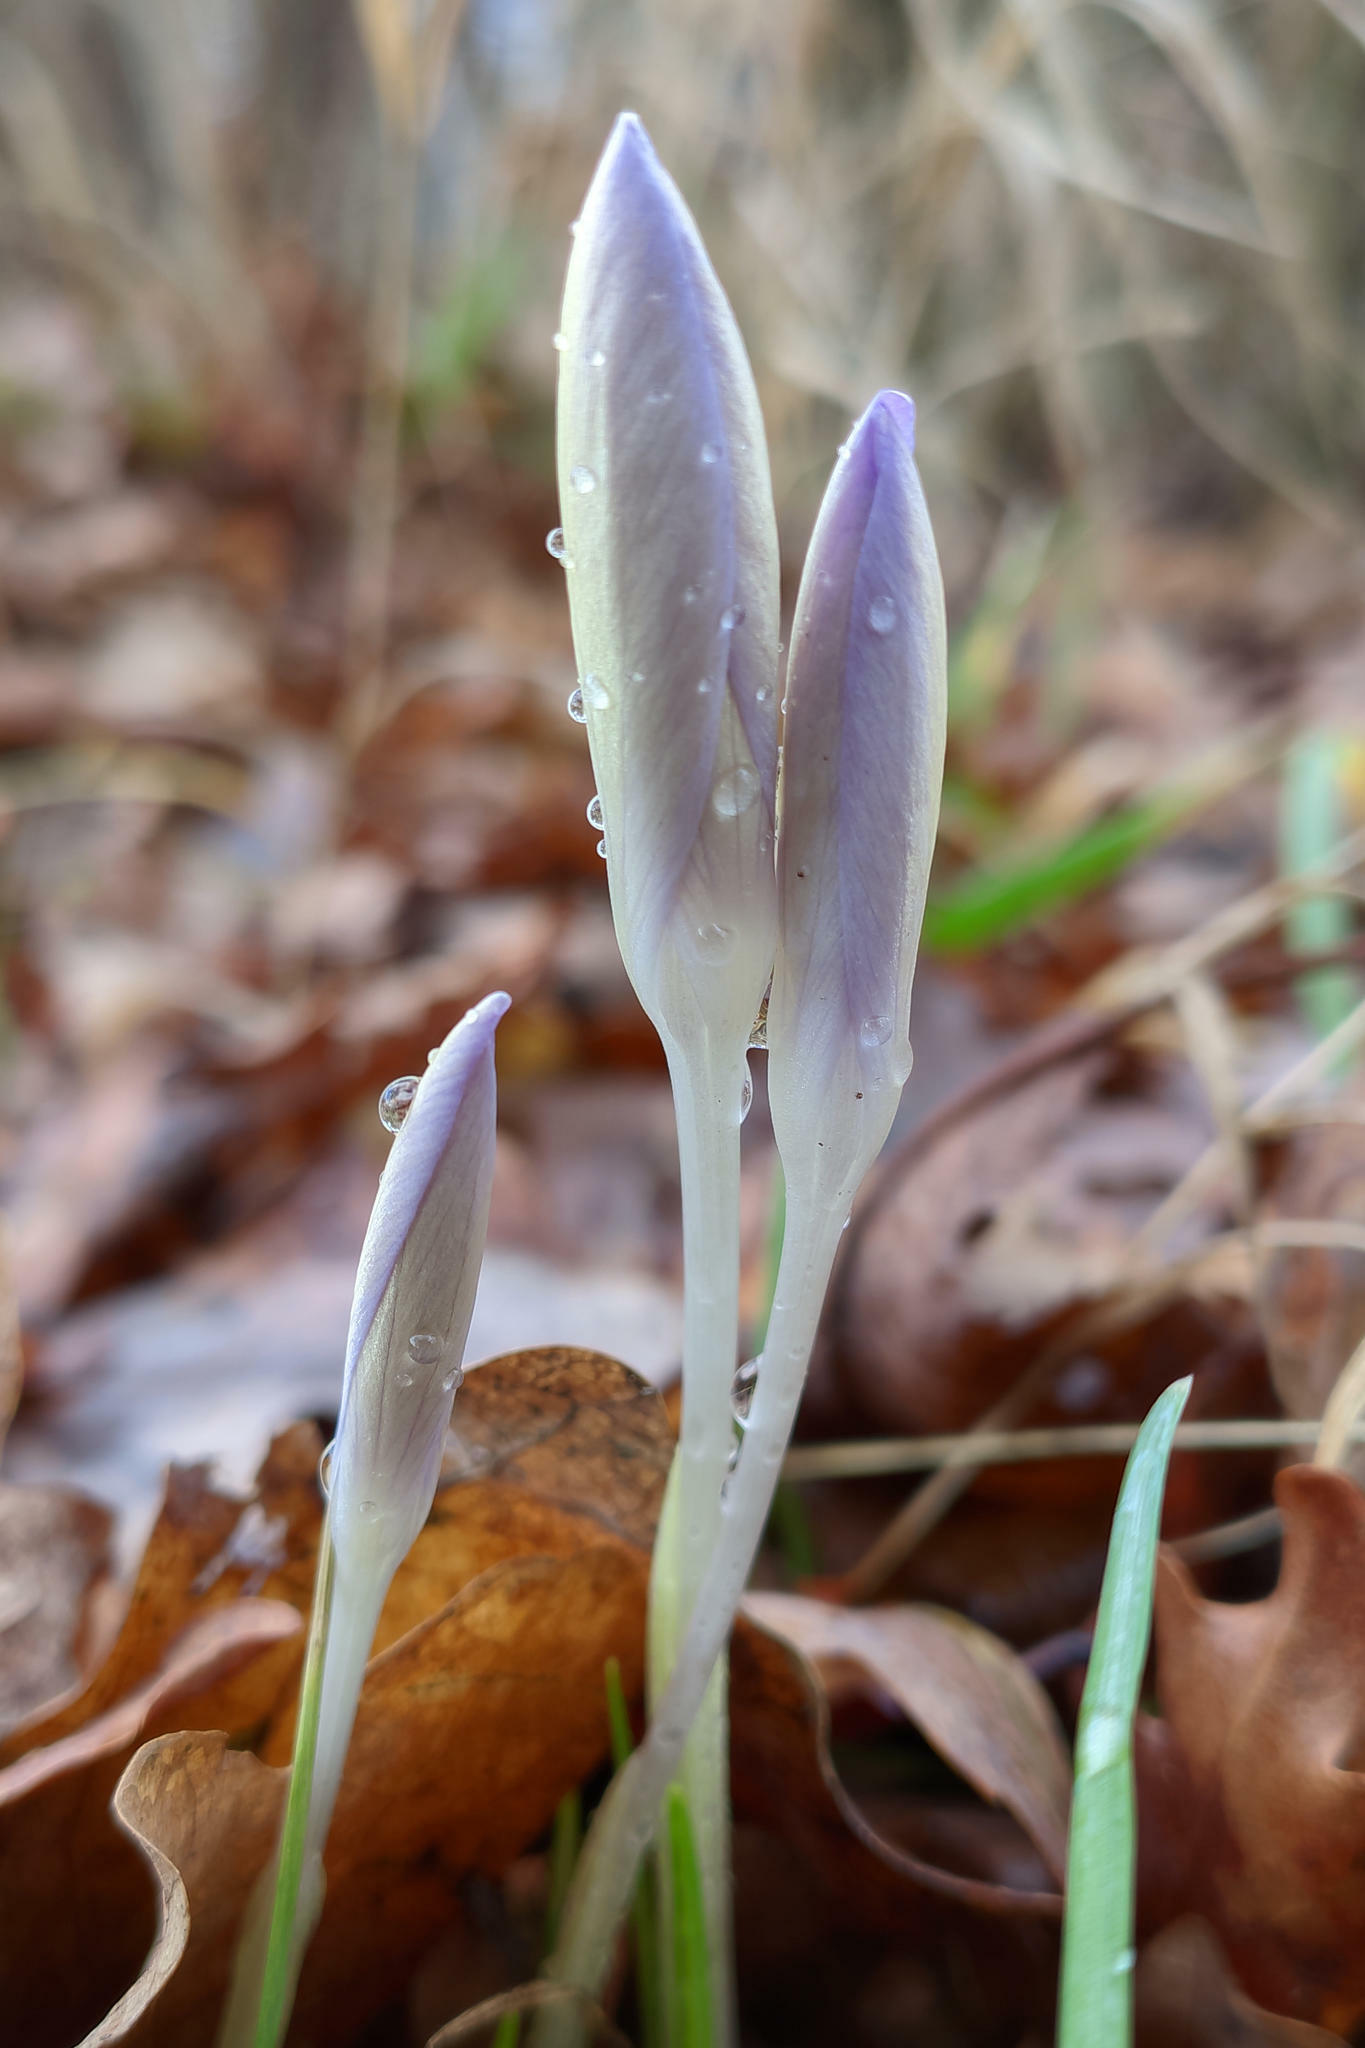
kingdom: Plantae
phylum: Tracheophyta
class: Liliopsida
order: Asparagales
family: Iridaceae
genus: Crocus
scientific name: Crocus tommasinianus
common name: Early crocus
